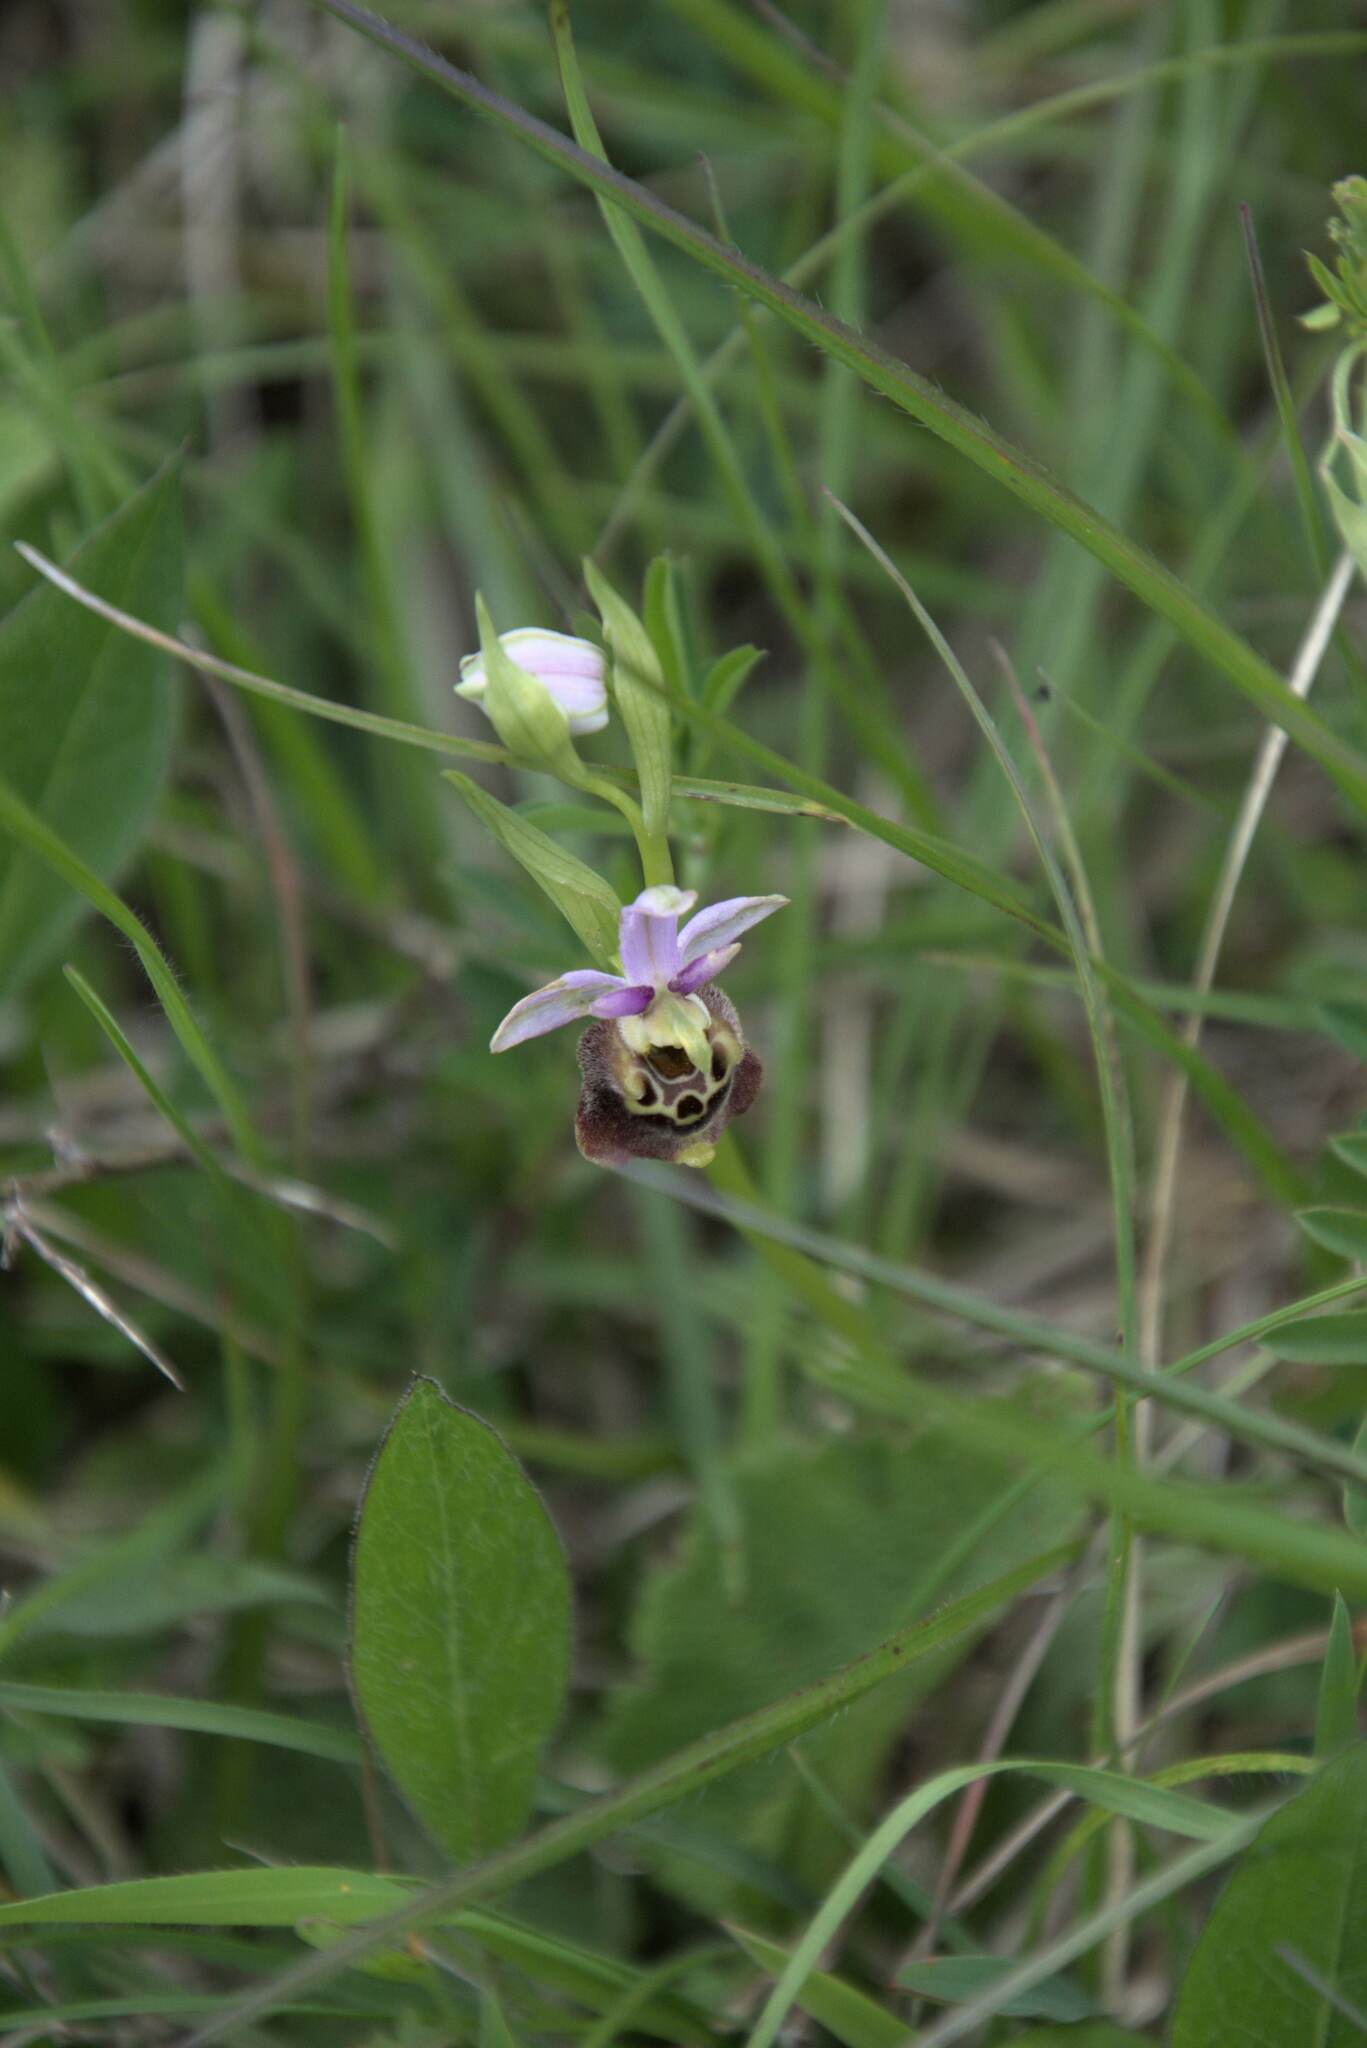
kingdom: Plantae
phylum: Tracheophyta
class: Liliopsida
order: Asparagales
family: Orchidaceae
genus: Ophrys
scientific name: Ophrys holosericea
